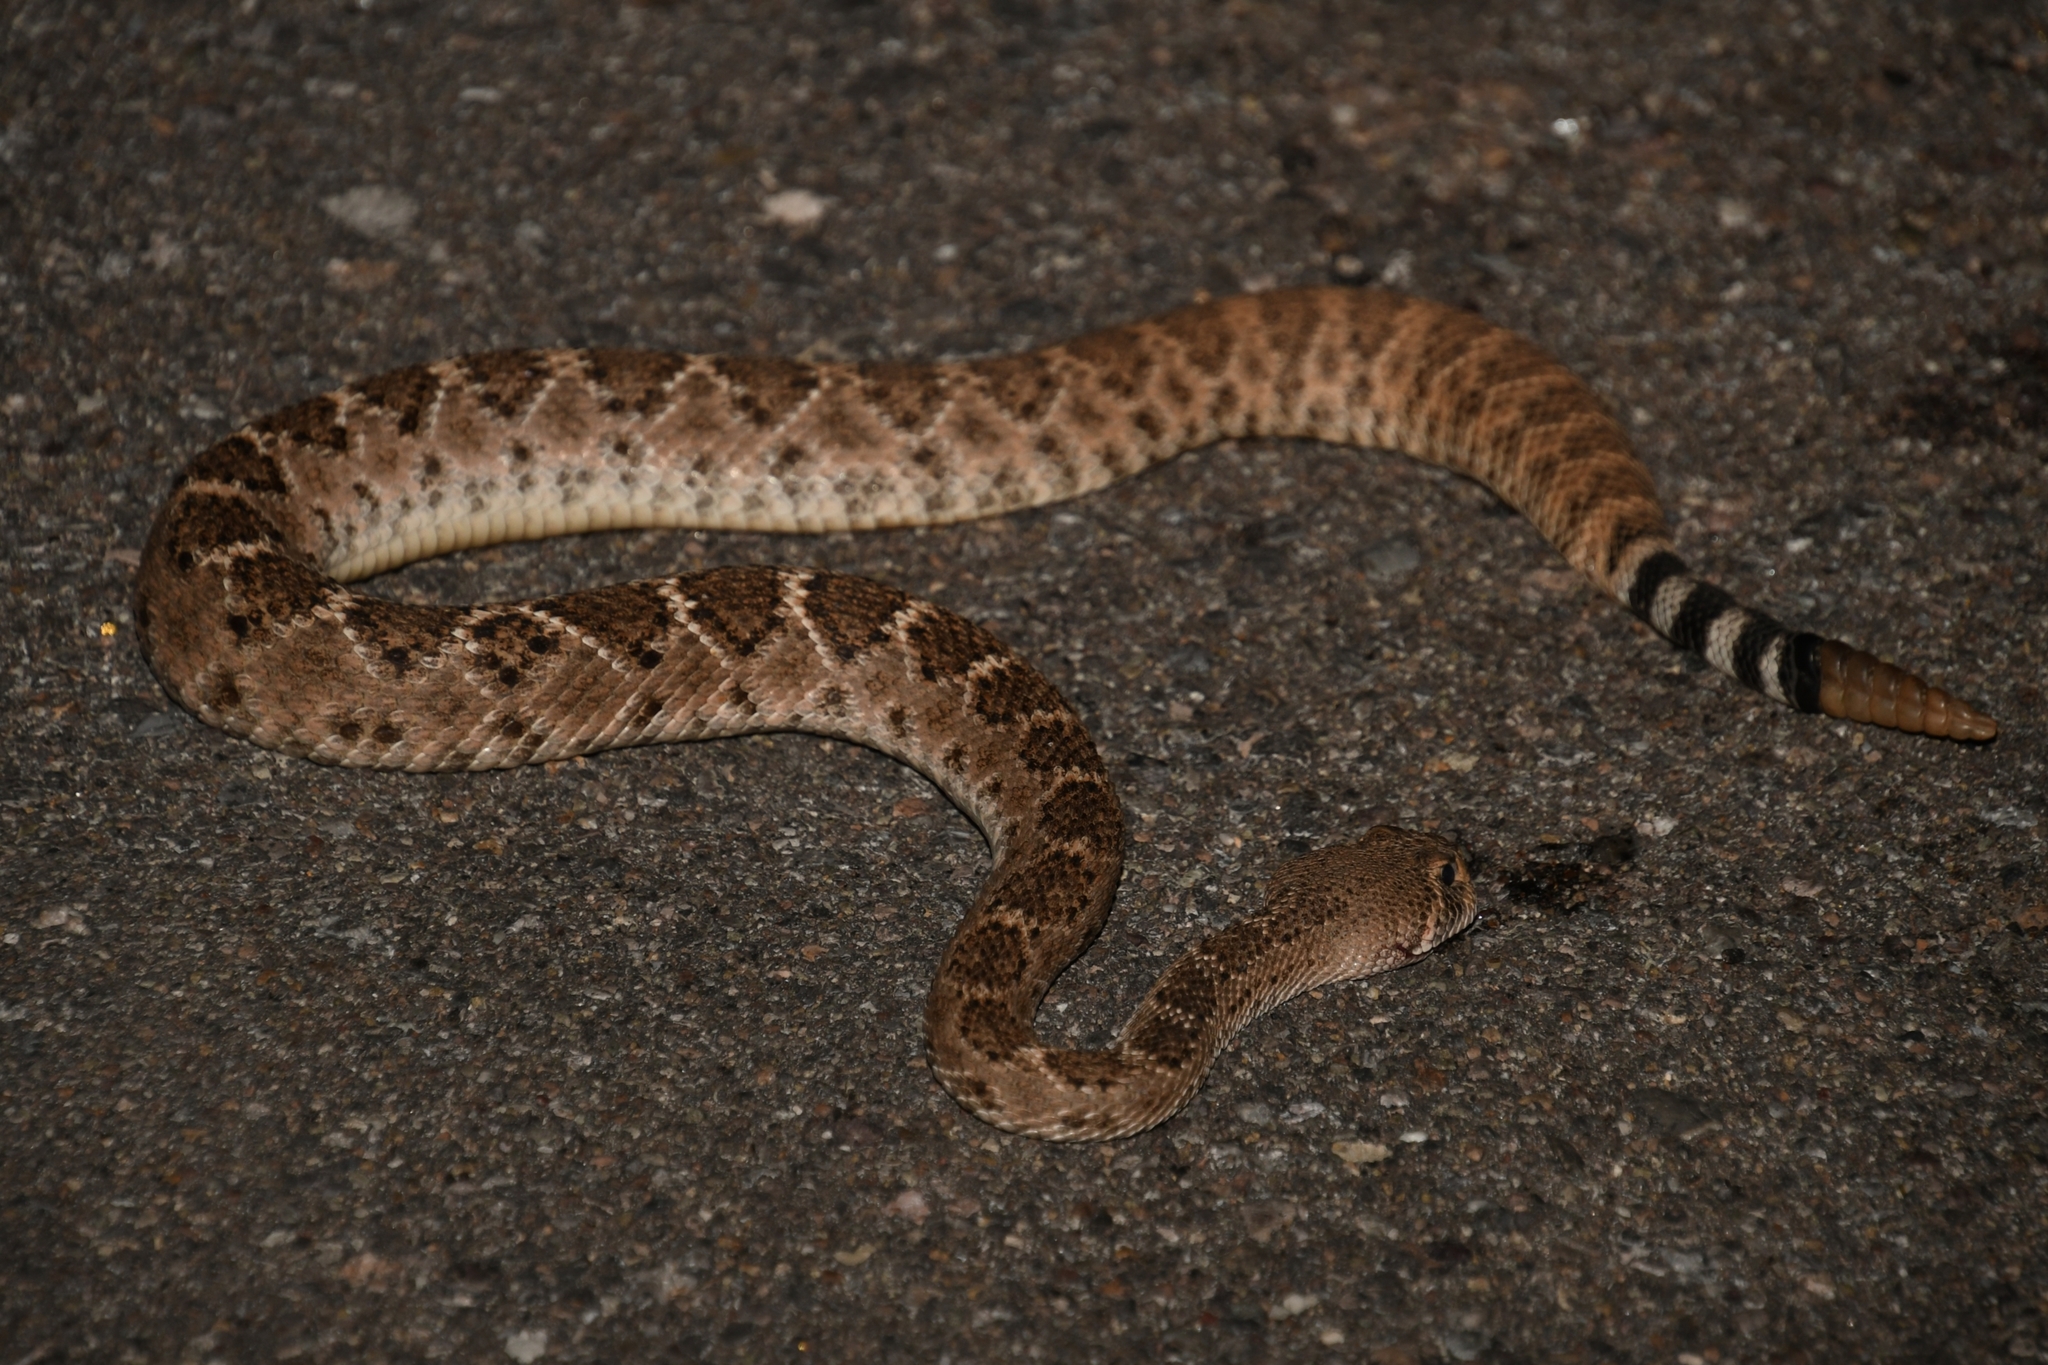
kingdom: Animalia
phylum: Chordata
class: Squamata
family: Viperidae
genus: Crotalus
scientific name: Crotalus atrox
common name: Western diamond-backed rattlesnake
